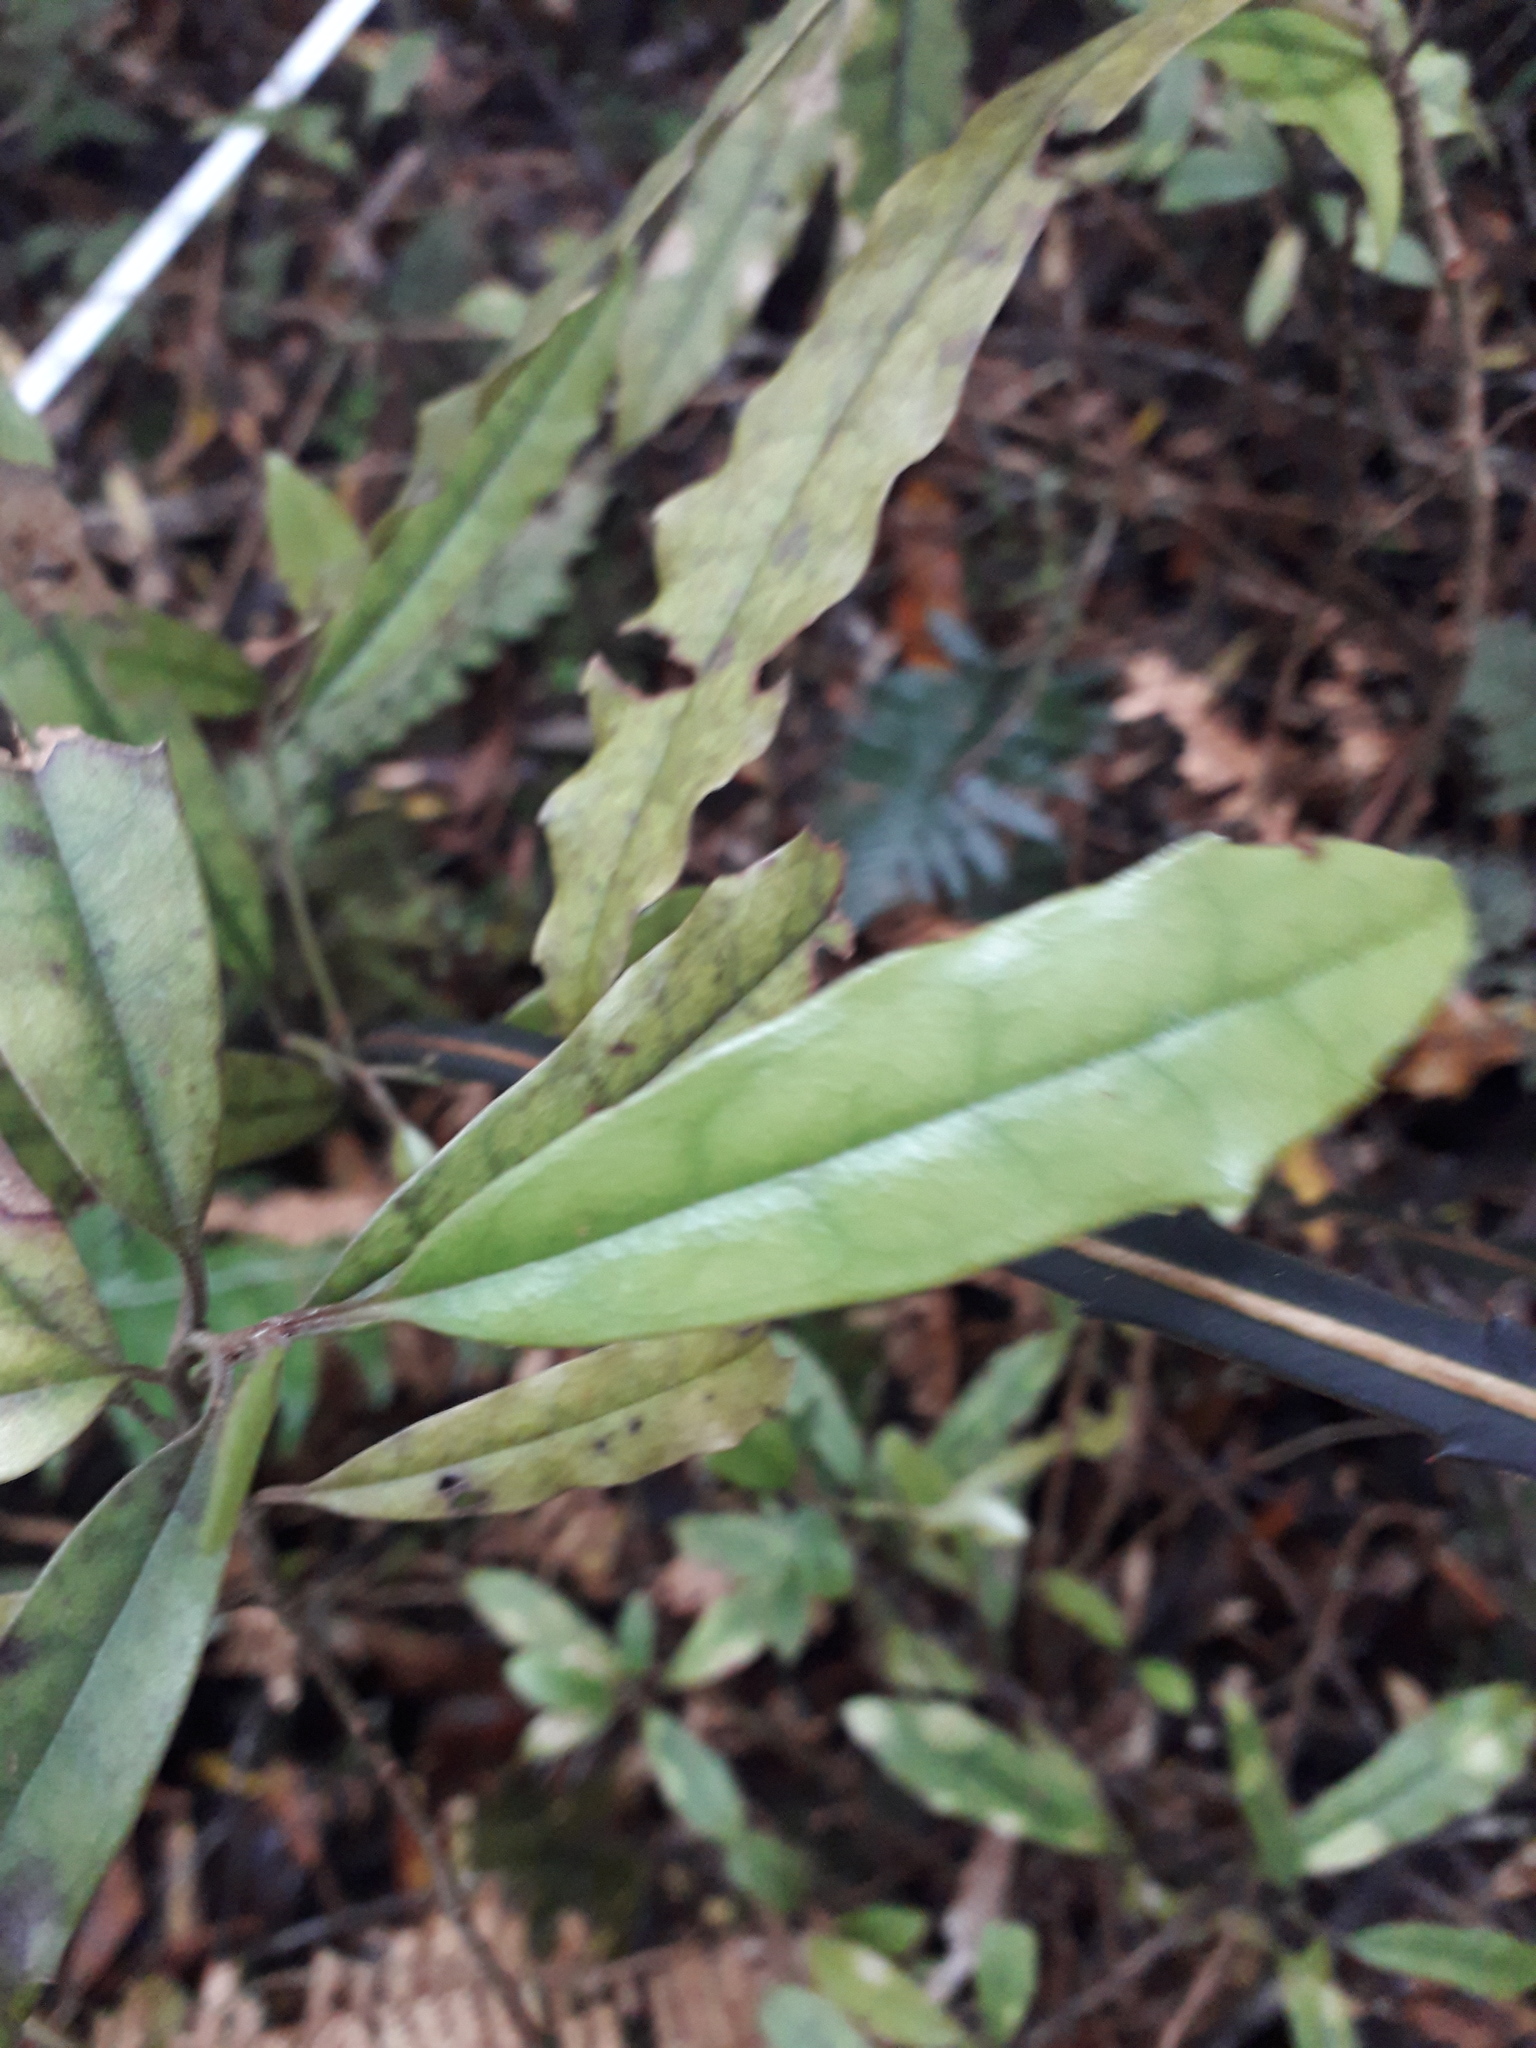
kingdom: Plantae
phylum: Tracheophyta
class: Magnoliopsida
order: Paracryphiales
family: Paracryphiaceae
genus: Quintinia
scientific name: Quintinia serrata
